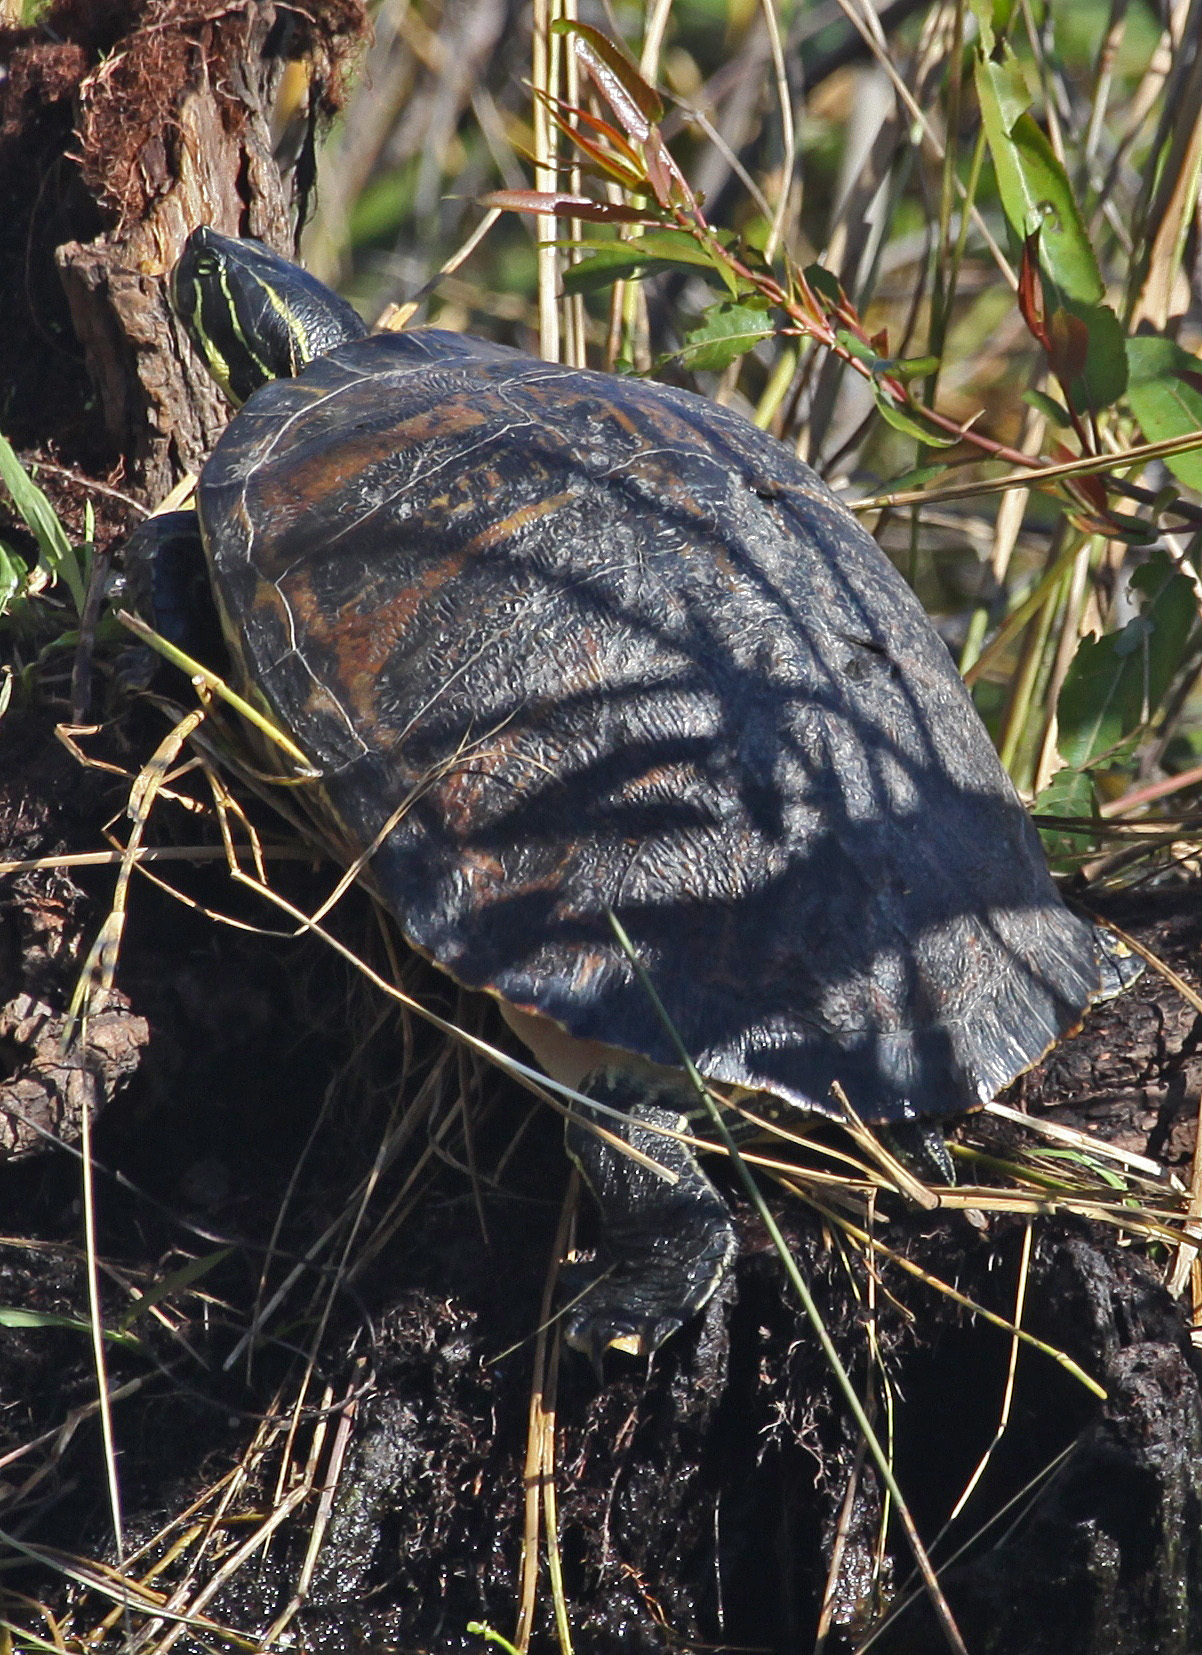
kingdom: Animalia
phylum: Chordata
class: Testudines
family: Emydidae
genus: Pseudemys
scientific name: Pseudemys nelsoni
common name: Florida red-bellied turtle
